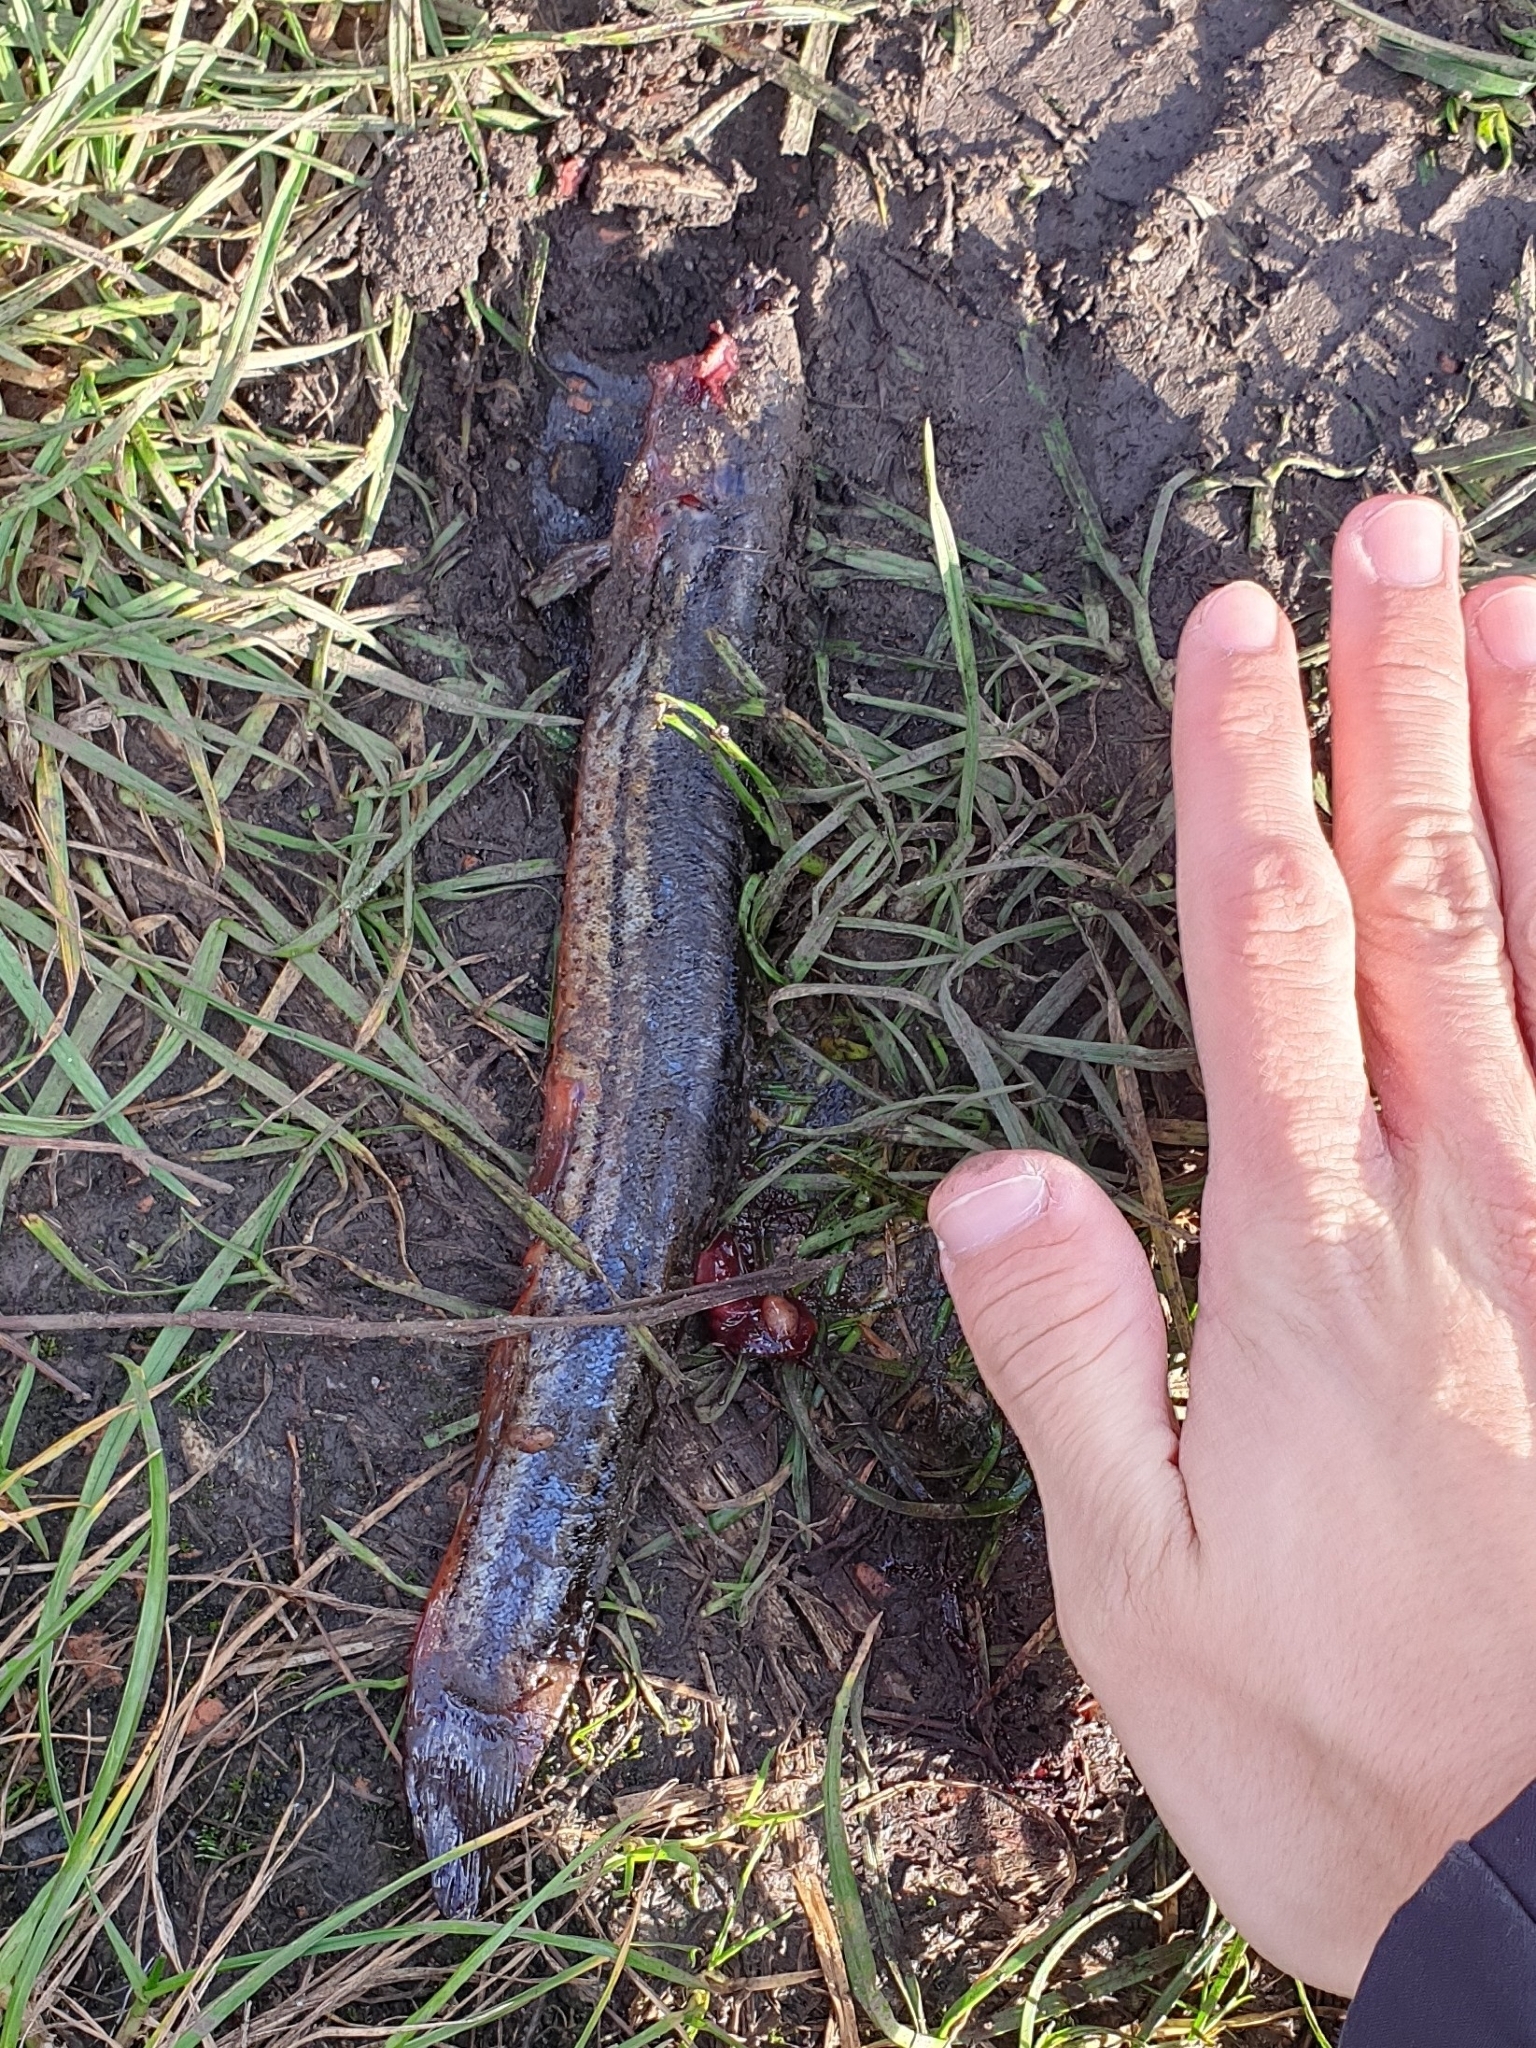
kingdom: Animalia
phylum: Chordata
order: Cypriniformes
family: Cobitidae
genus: Misgurnus
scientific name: Misgurnus fossilis
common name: Weatherfish
